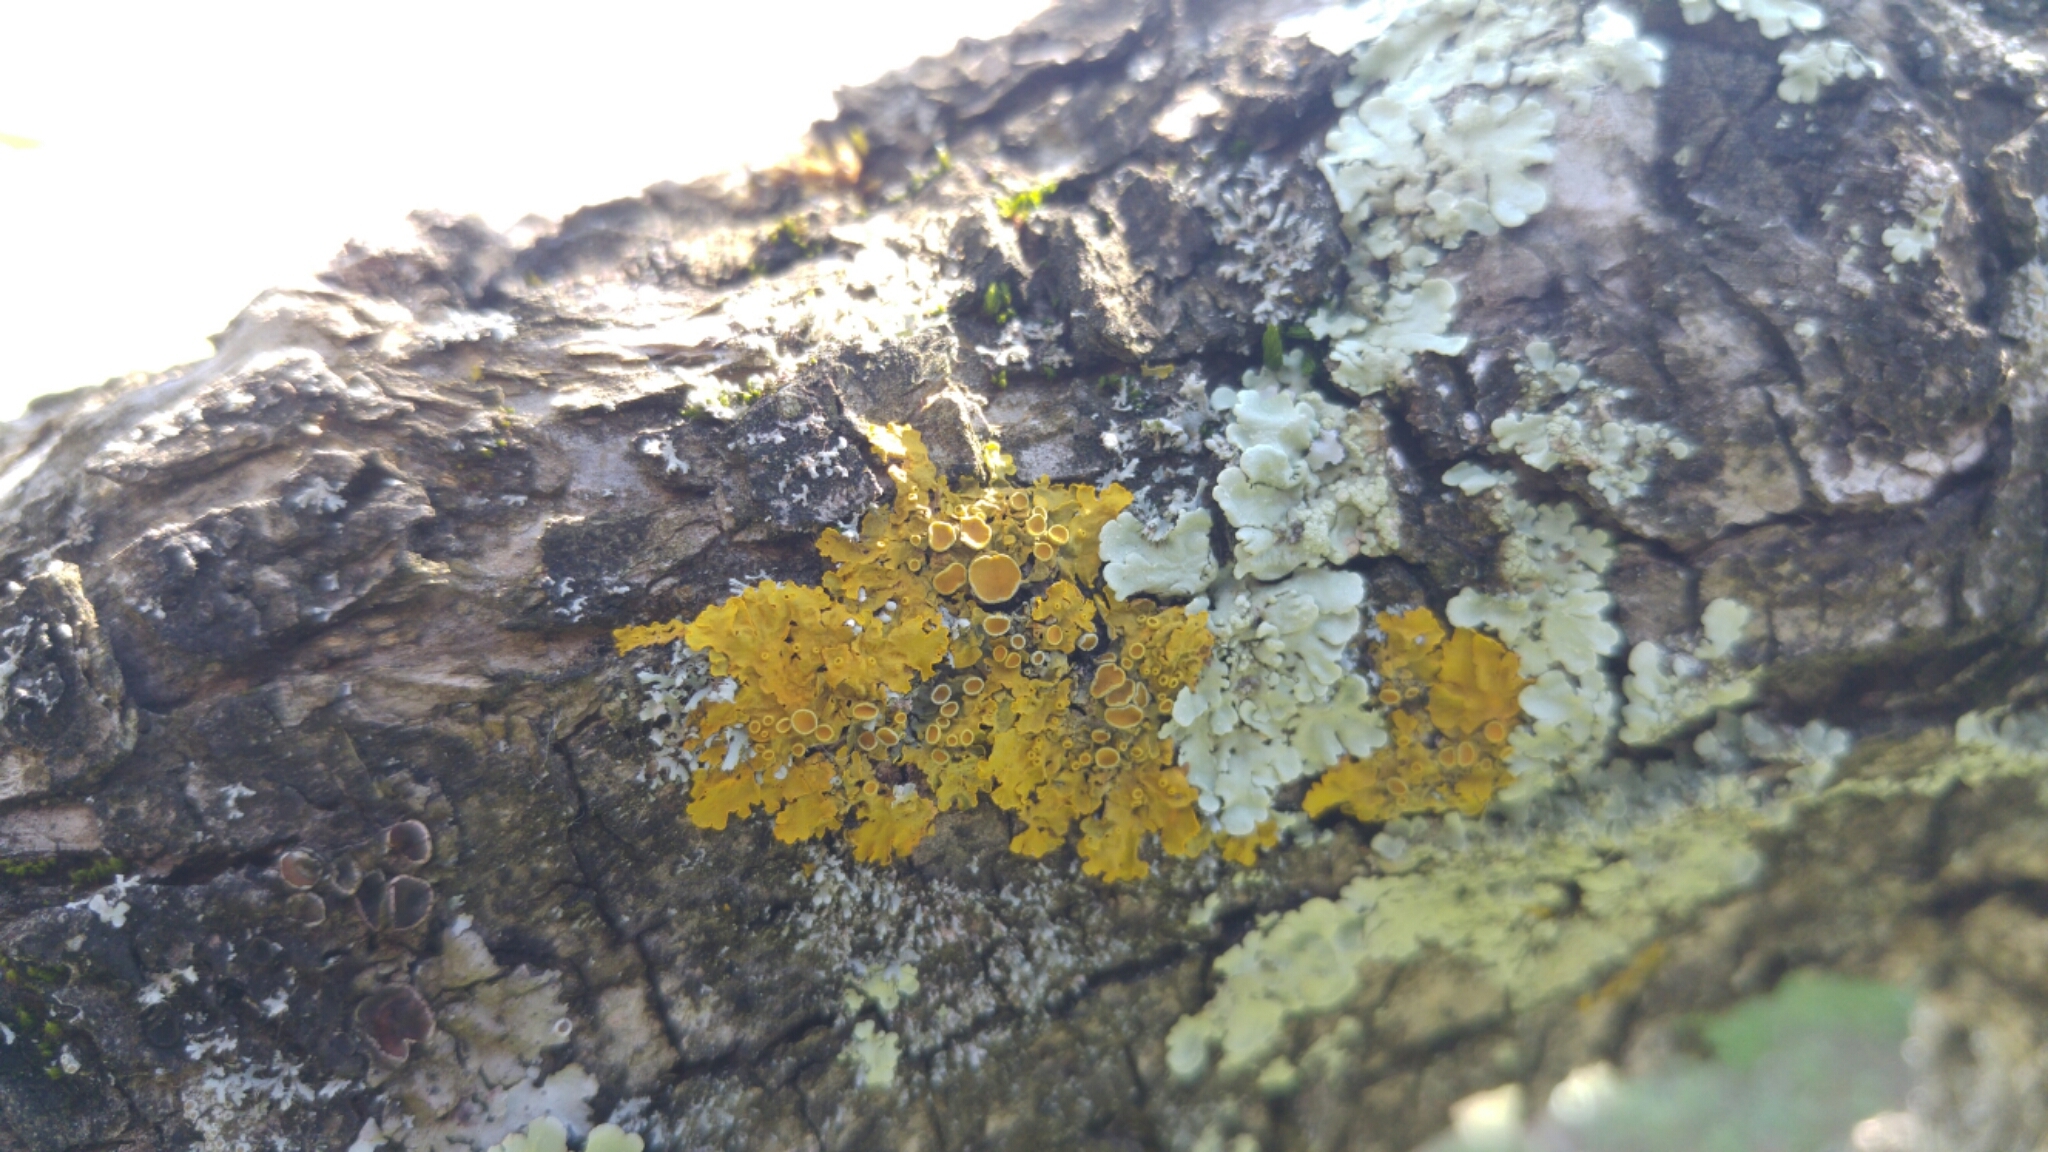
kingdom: Fungi
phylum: Ascomycota
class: Lecanoromycetes
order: Teloschistales
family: Teloschistaceae
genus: Xanthoria
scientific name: Xanthoria parietina
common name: Common orange lichen
